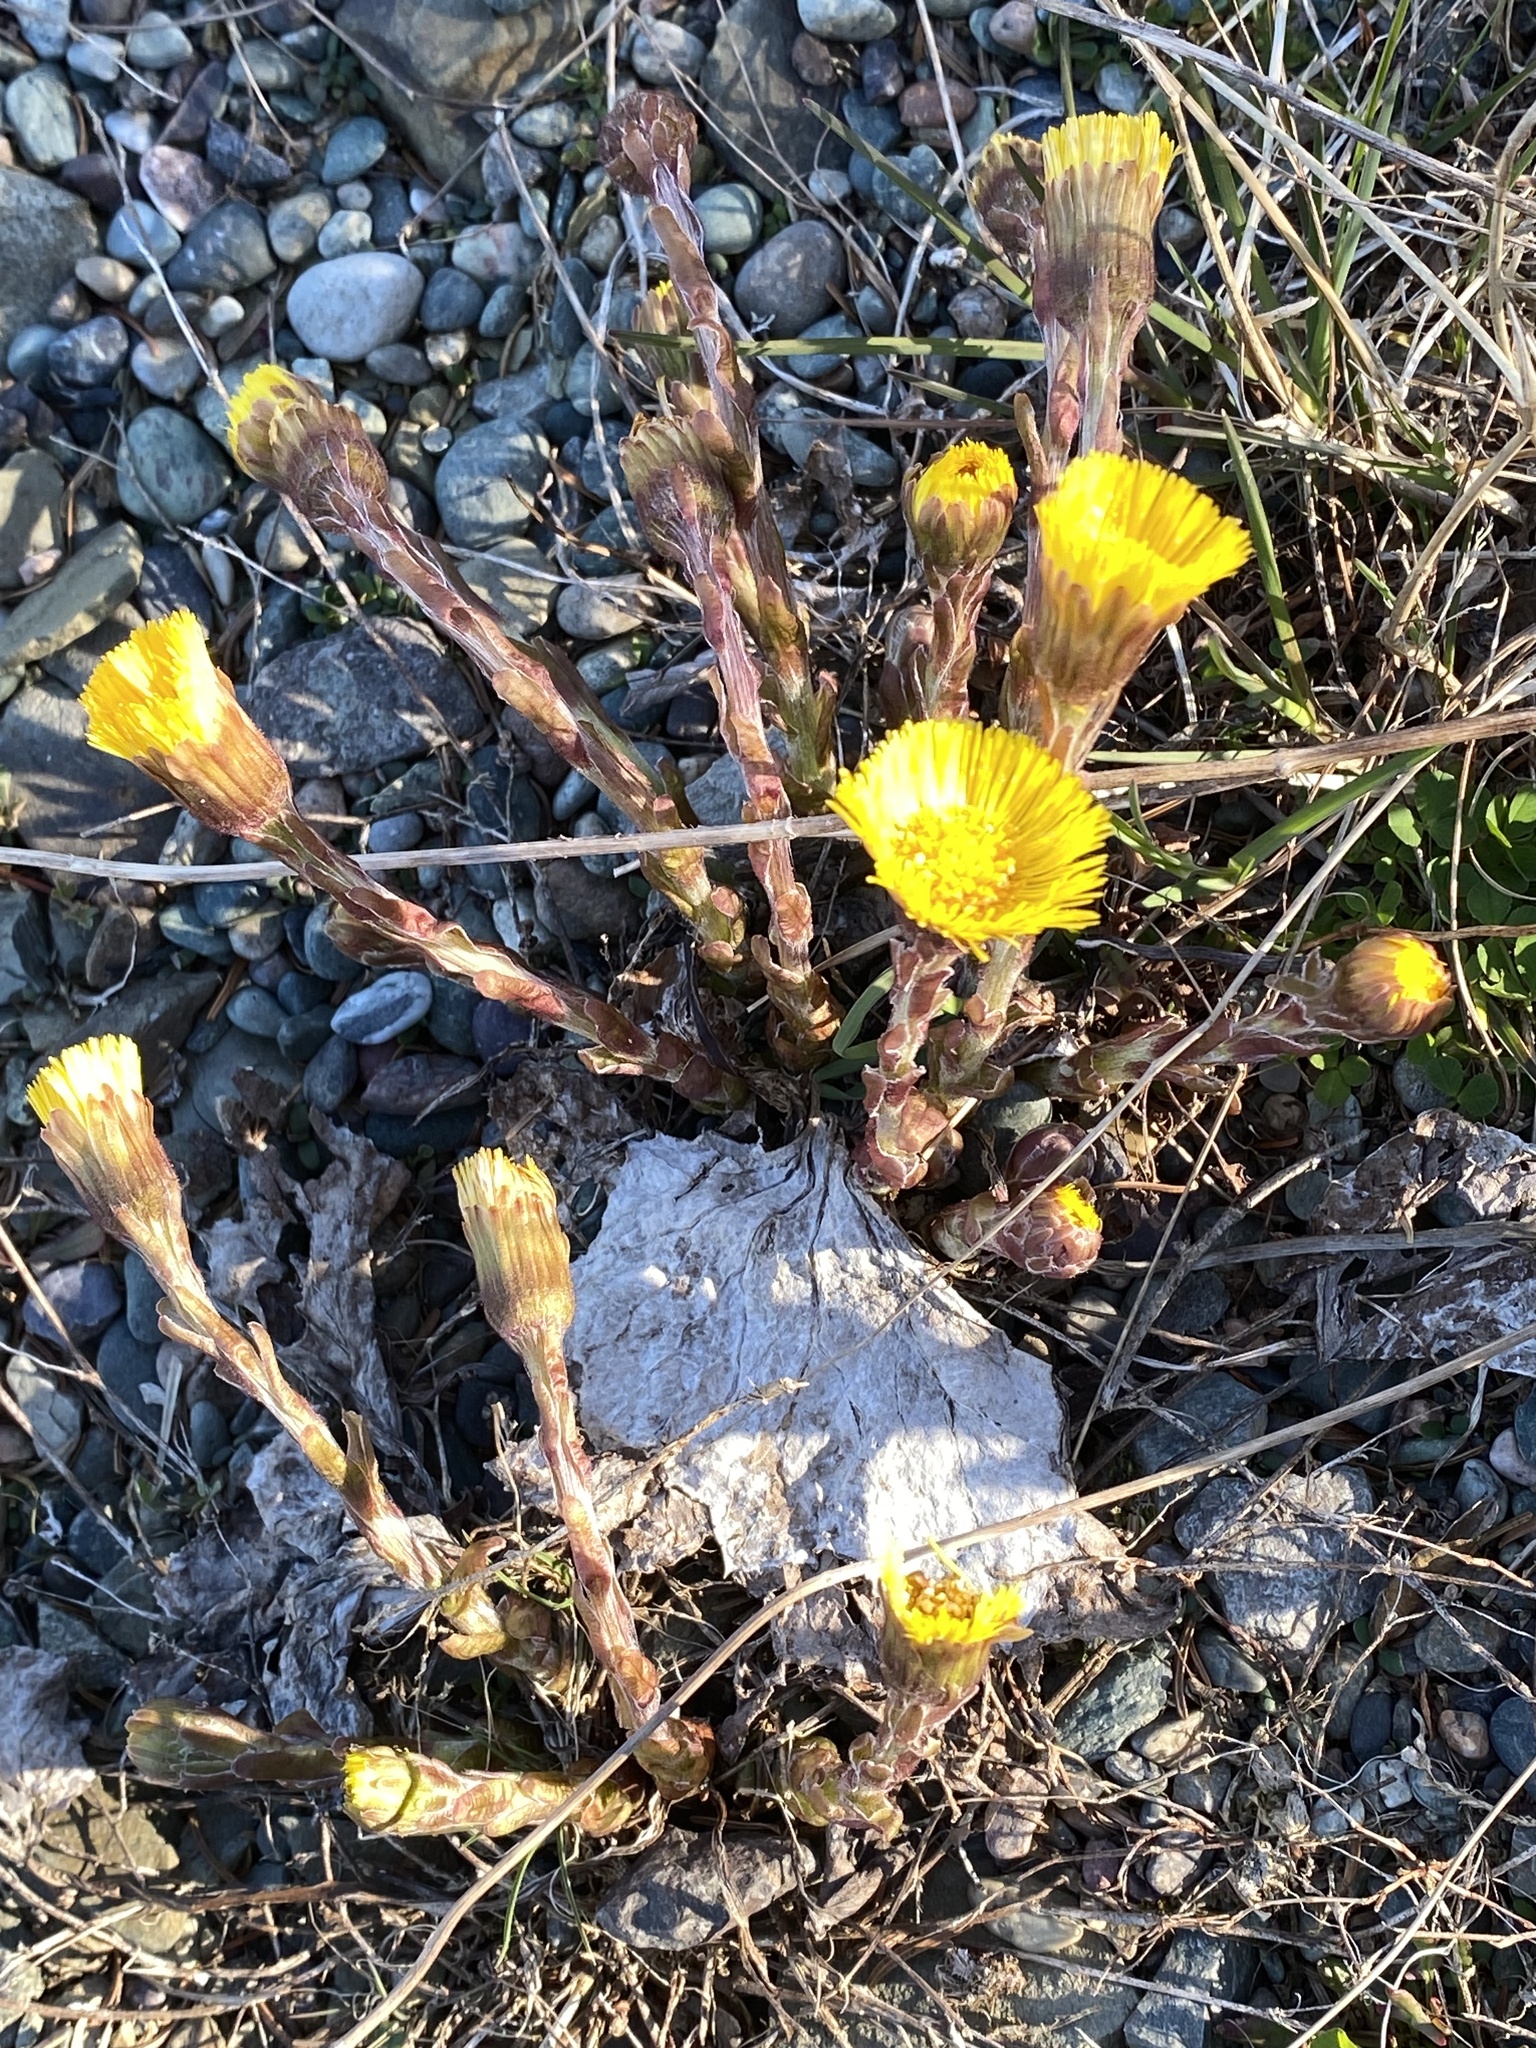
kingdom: Plantae
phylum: Tracheophyta
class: Magnoliopsida
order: Asterales
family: Asteraceae
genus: Tussilago
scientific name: Tussilago farfara
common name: Coltsfoot
